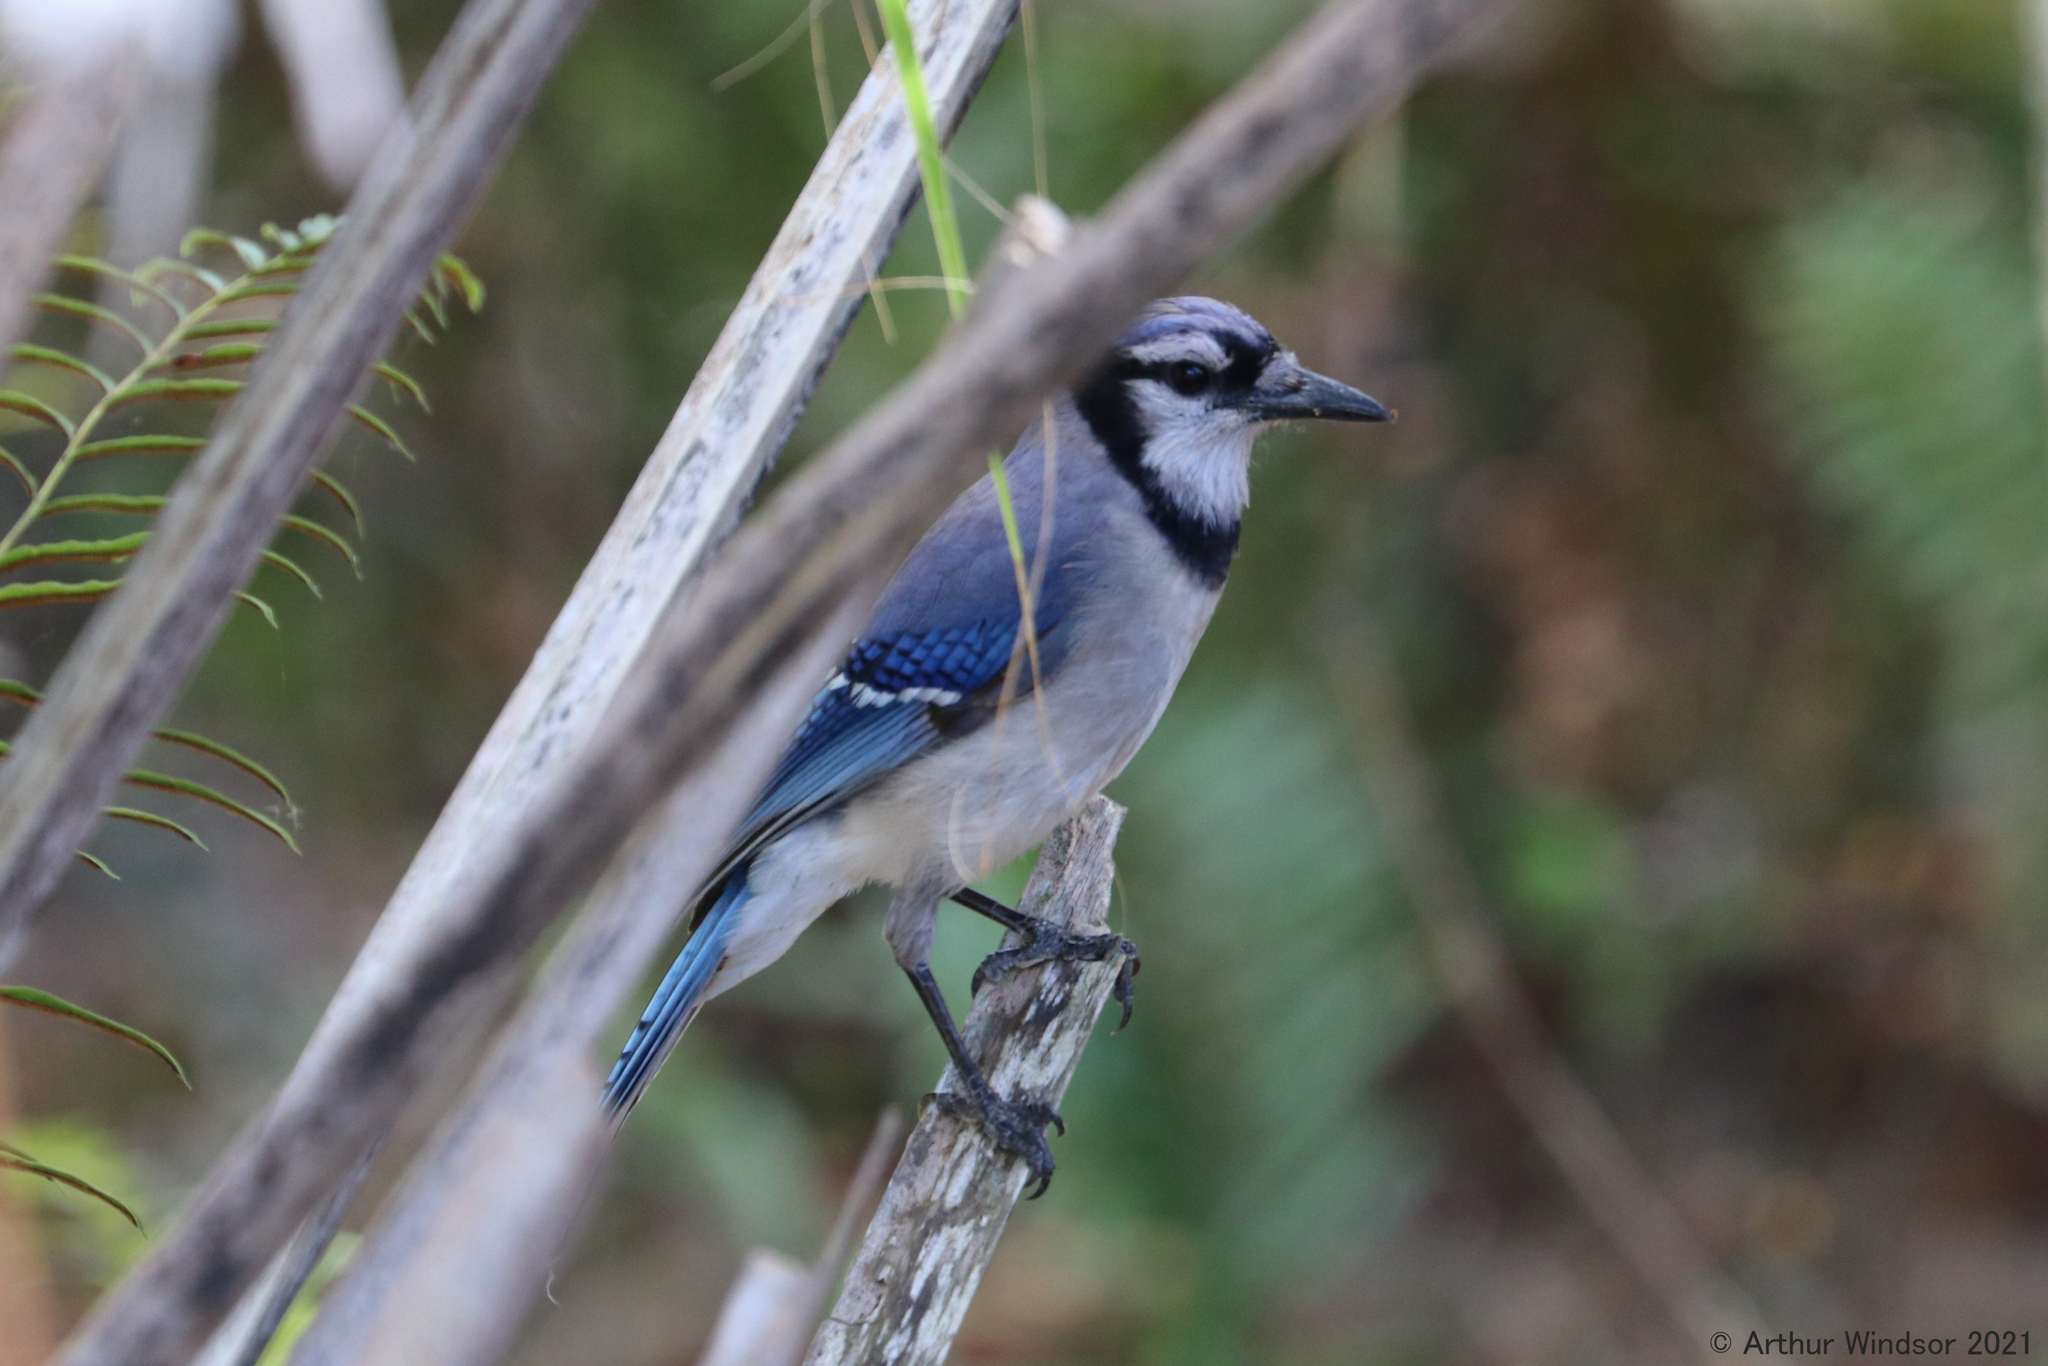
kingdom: Animalia
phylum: Chordata
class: Aves
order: Passeriformes
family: Corvidae
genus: Cyanocitta
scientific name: Cyanocitta cristata
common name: Blue jay
